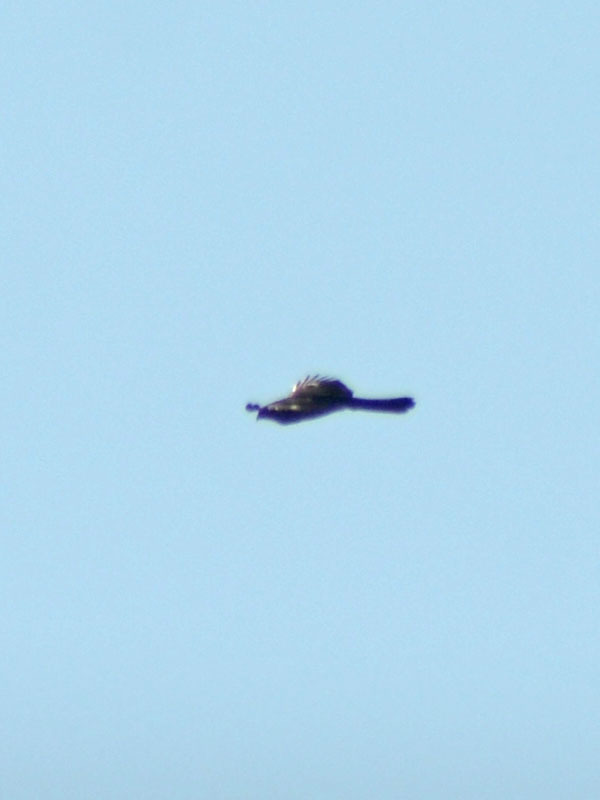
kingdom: Animalia
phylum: Chordata
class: Aves
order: Accipitriformes
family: Accipitridae
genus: Accipiter
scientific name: Accipiter cooperii
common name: Cooper's hawk
